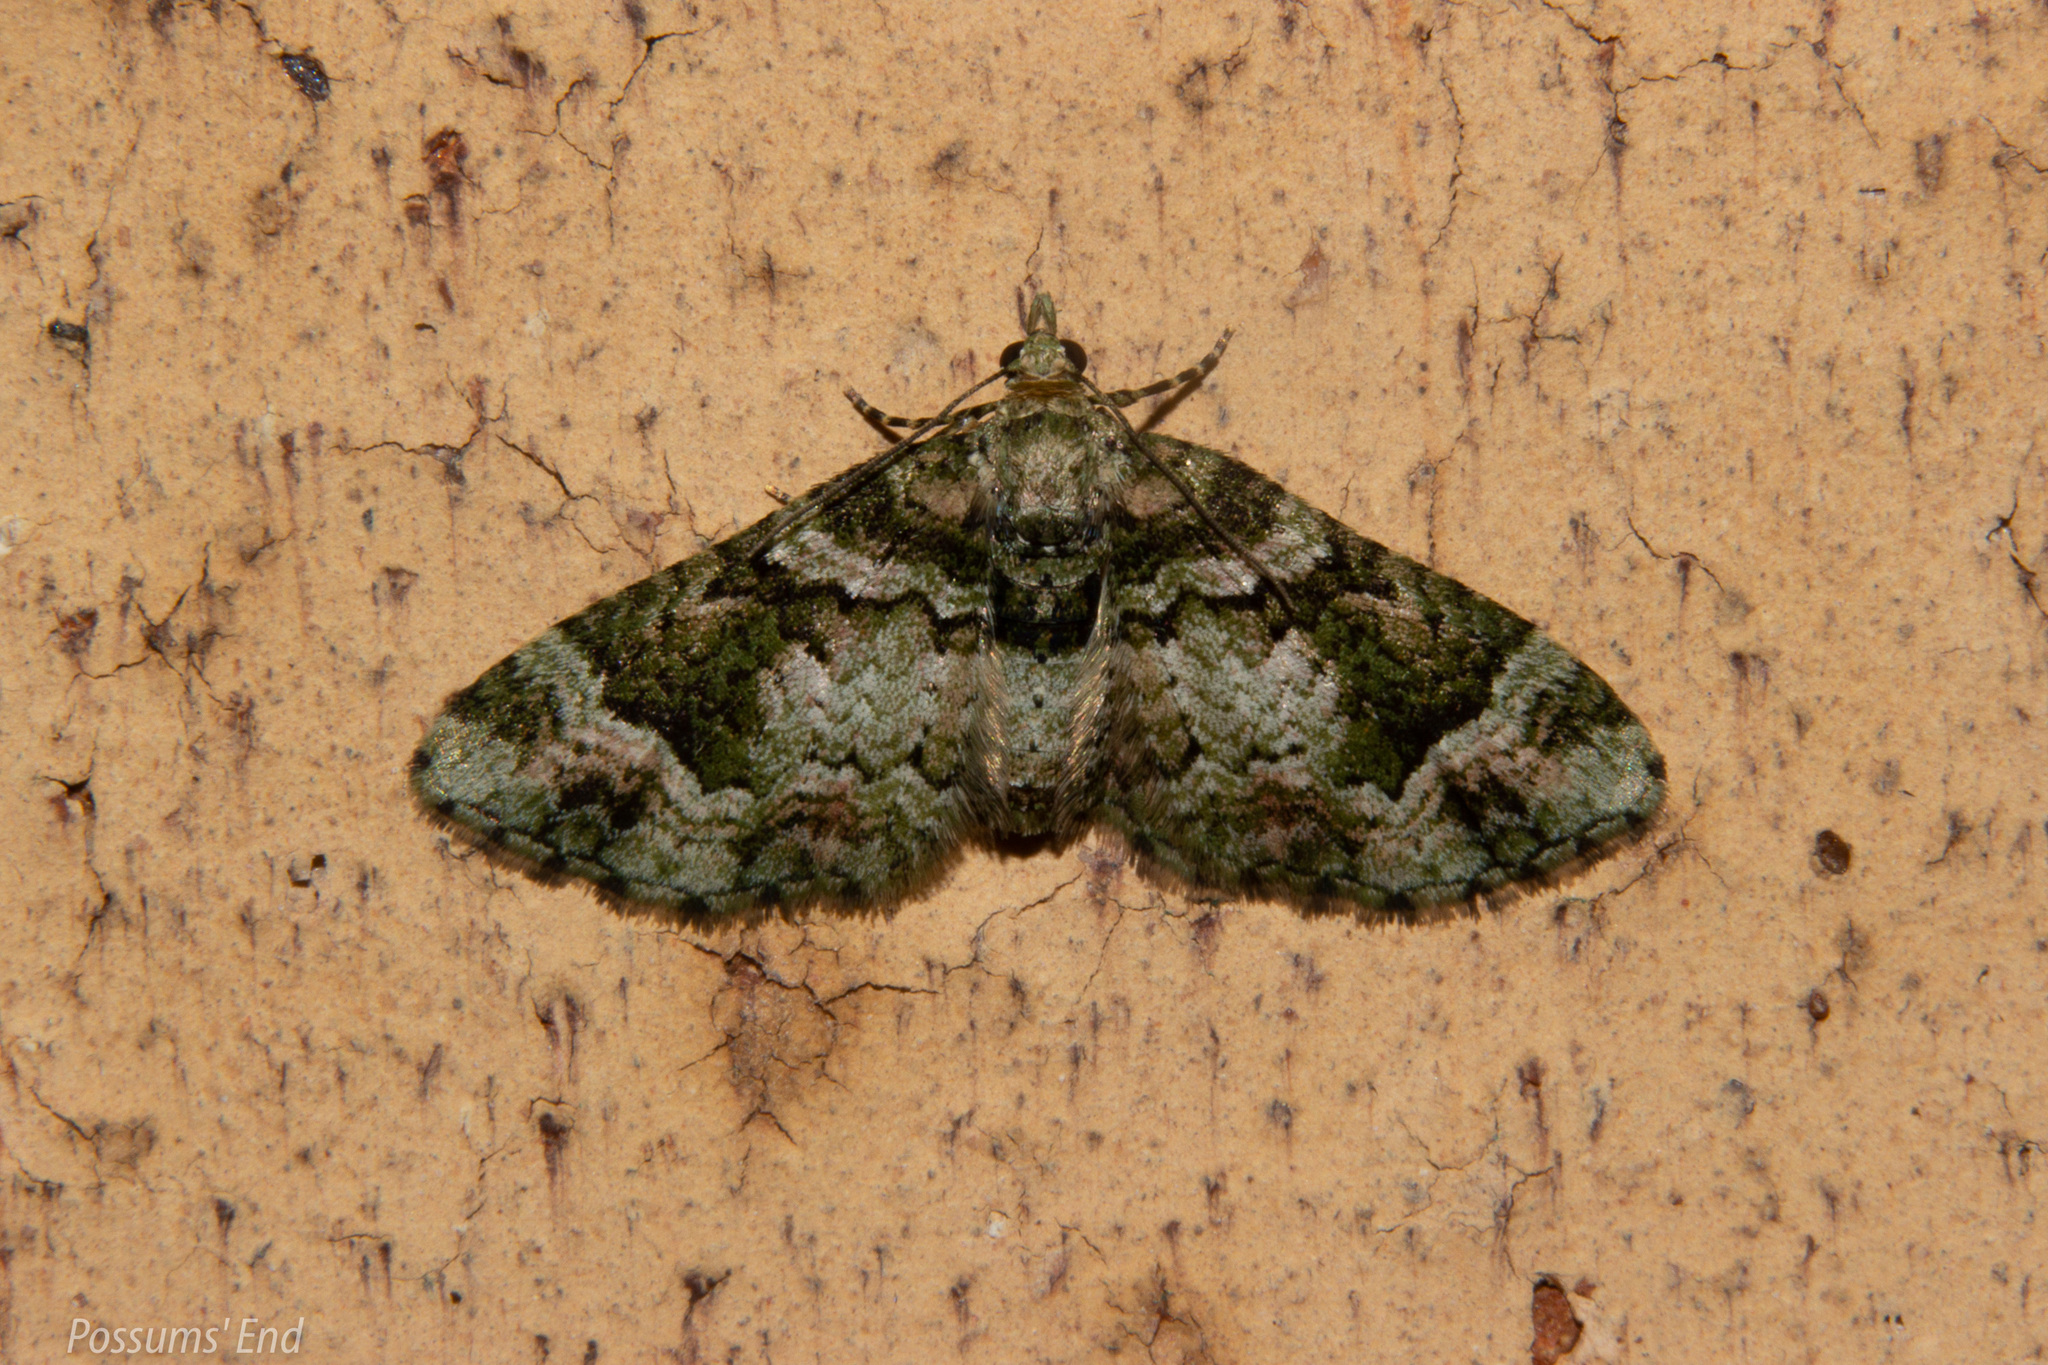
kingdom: Animalia
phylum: Arthropoda
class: Insecta
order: Lepidoptera
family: Geometridae
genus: Idaea
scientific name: Idaea mutanda
